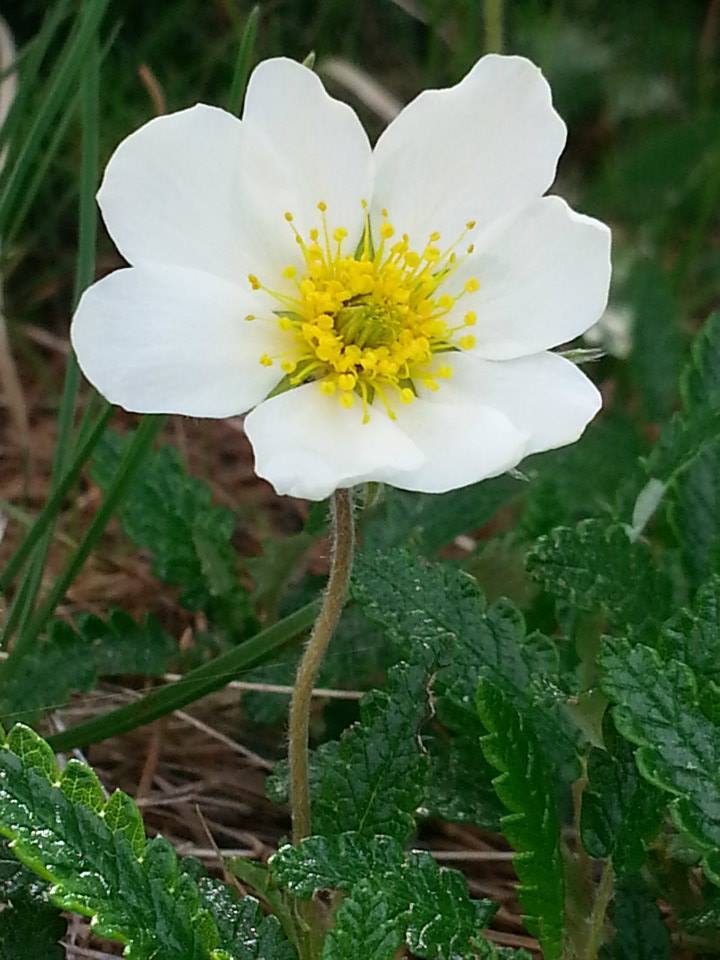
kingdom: Plantae
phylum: Tracheophyta
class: Magnoliopsida
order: Rosales
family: Rosaceae
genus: Dryas
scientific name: Dryas octopetala
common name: Eight-petal mountain-avens
